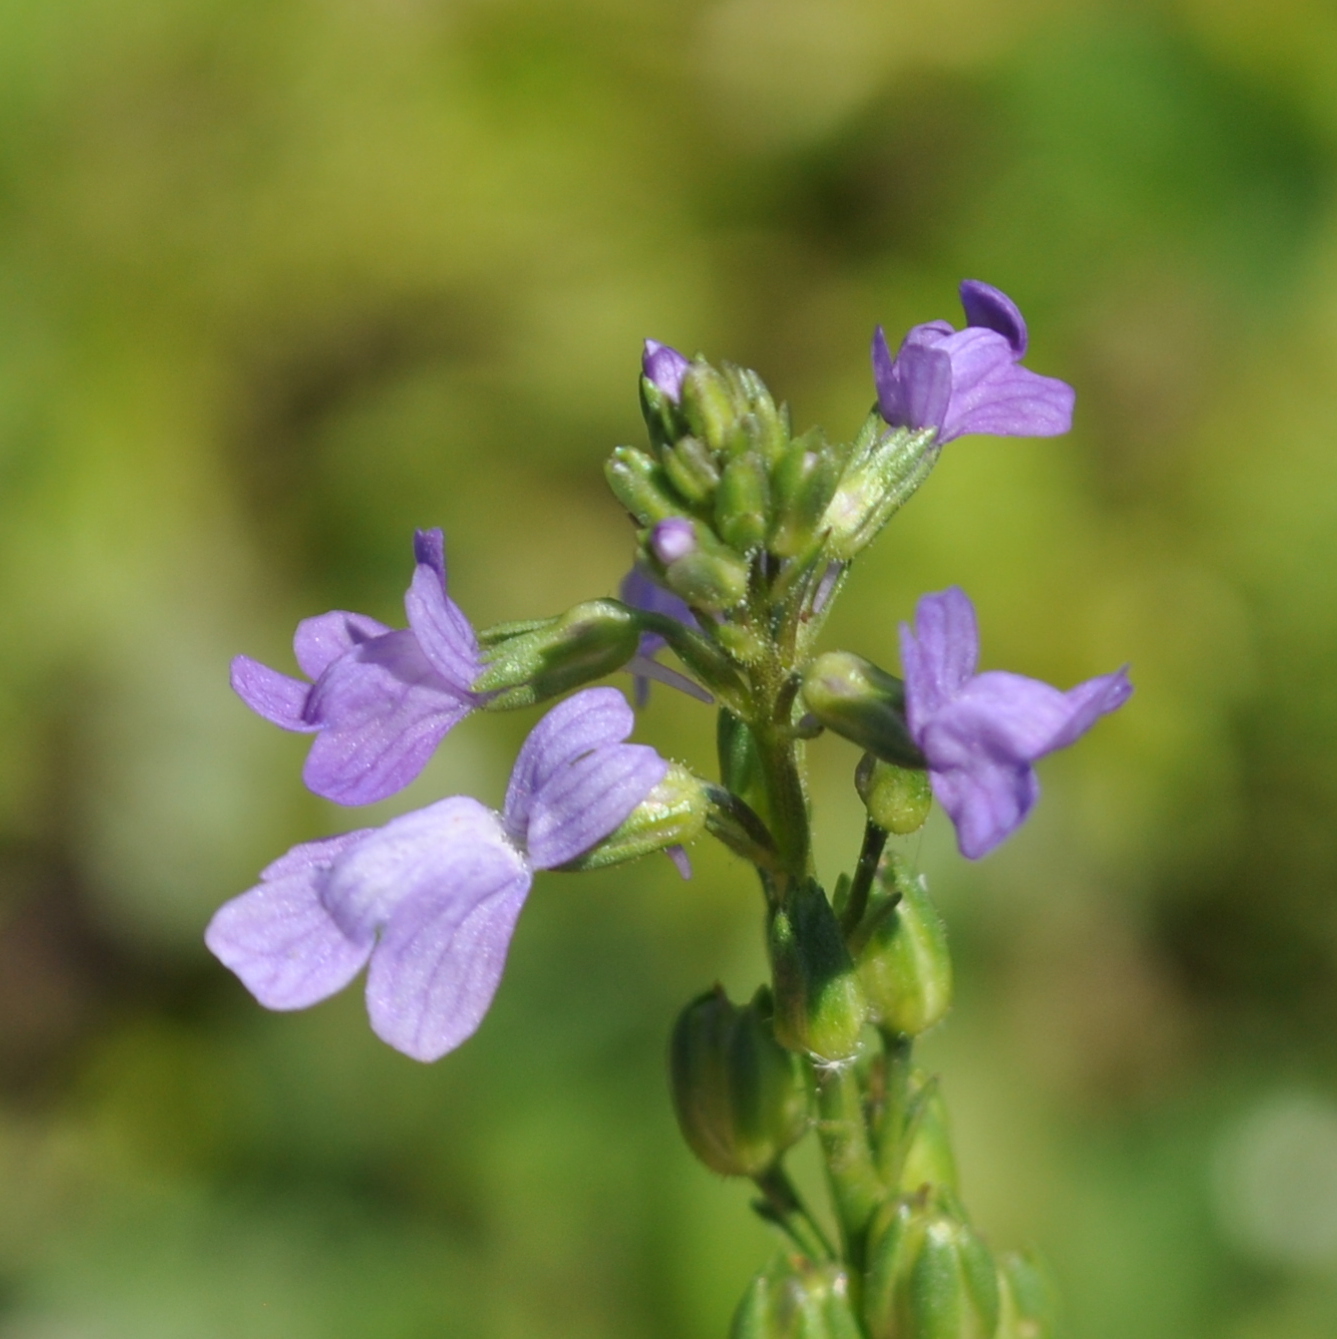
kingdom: Plantae
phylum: Tracheophyta
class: Magnoliopsida
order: Lamiales
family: Plantaginaceae
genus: Nuttallanthus
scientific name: Nuttallanthus texanus
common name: Texas toadflax
